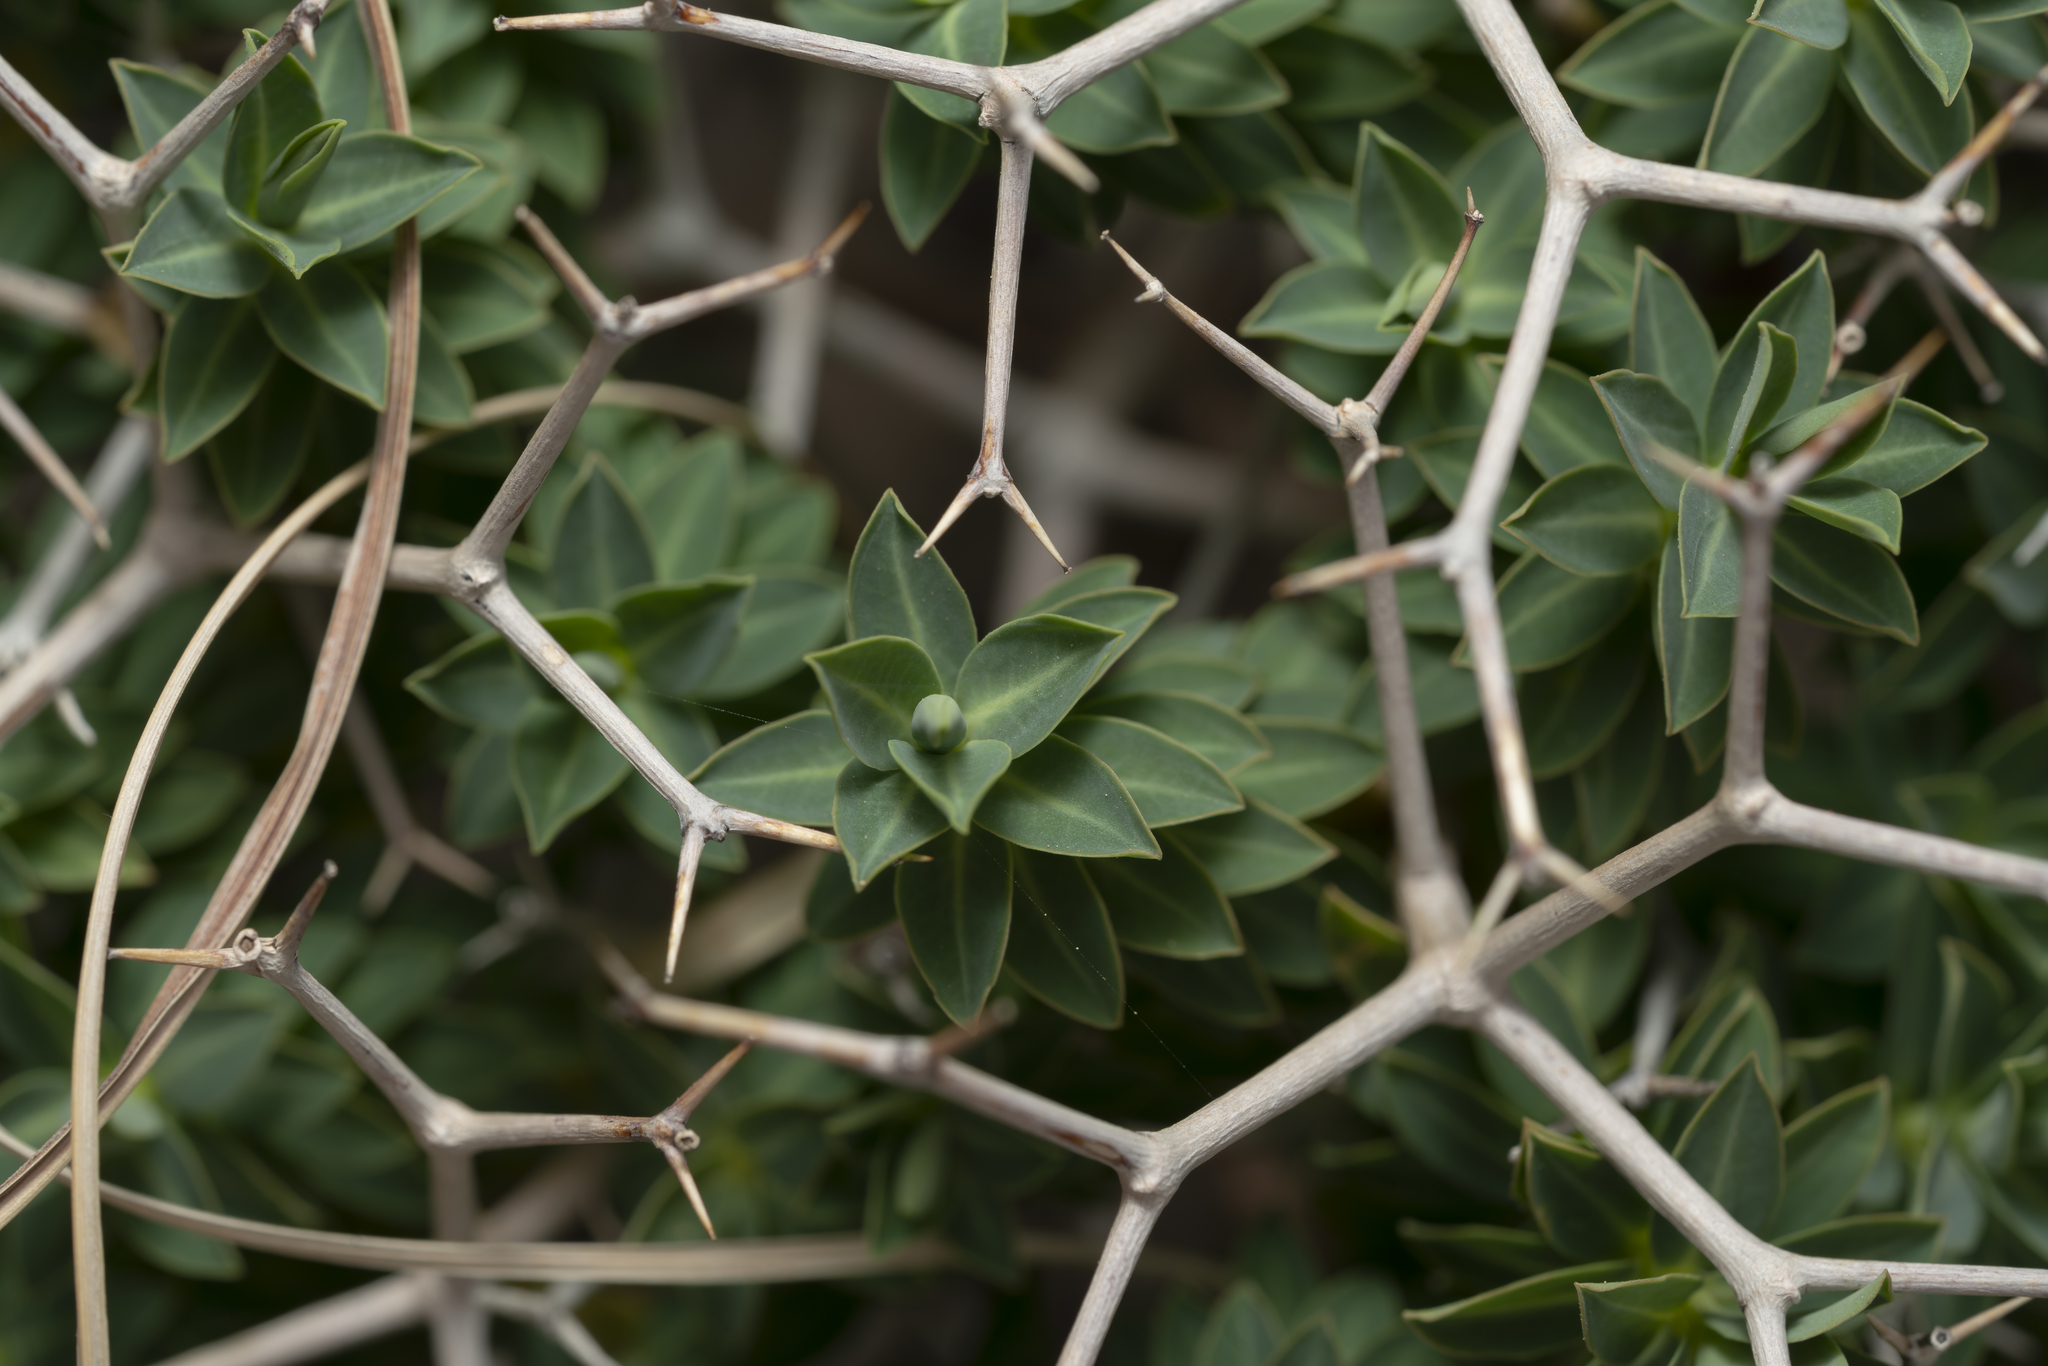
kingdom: Plantae
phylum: Tracheophyta
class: Magnoliopsida
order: Malpighiales
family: Euphorbiaceae
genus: Euphorbia
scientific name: Euphorbia acanthothamnos
